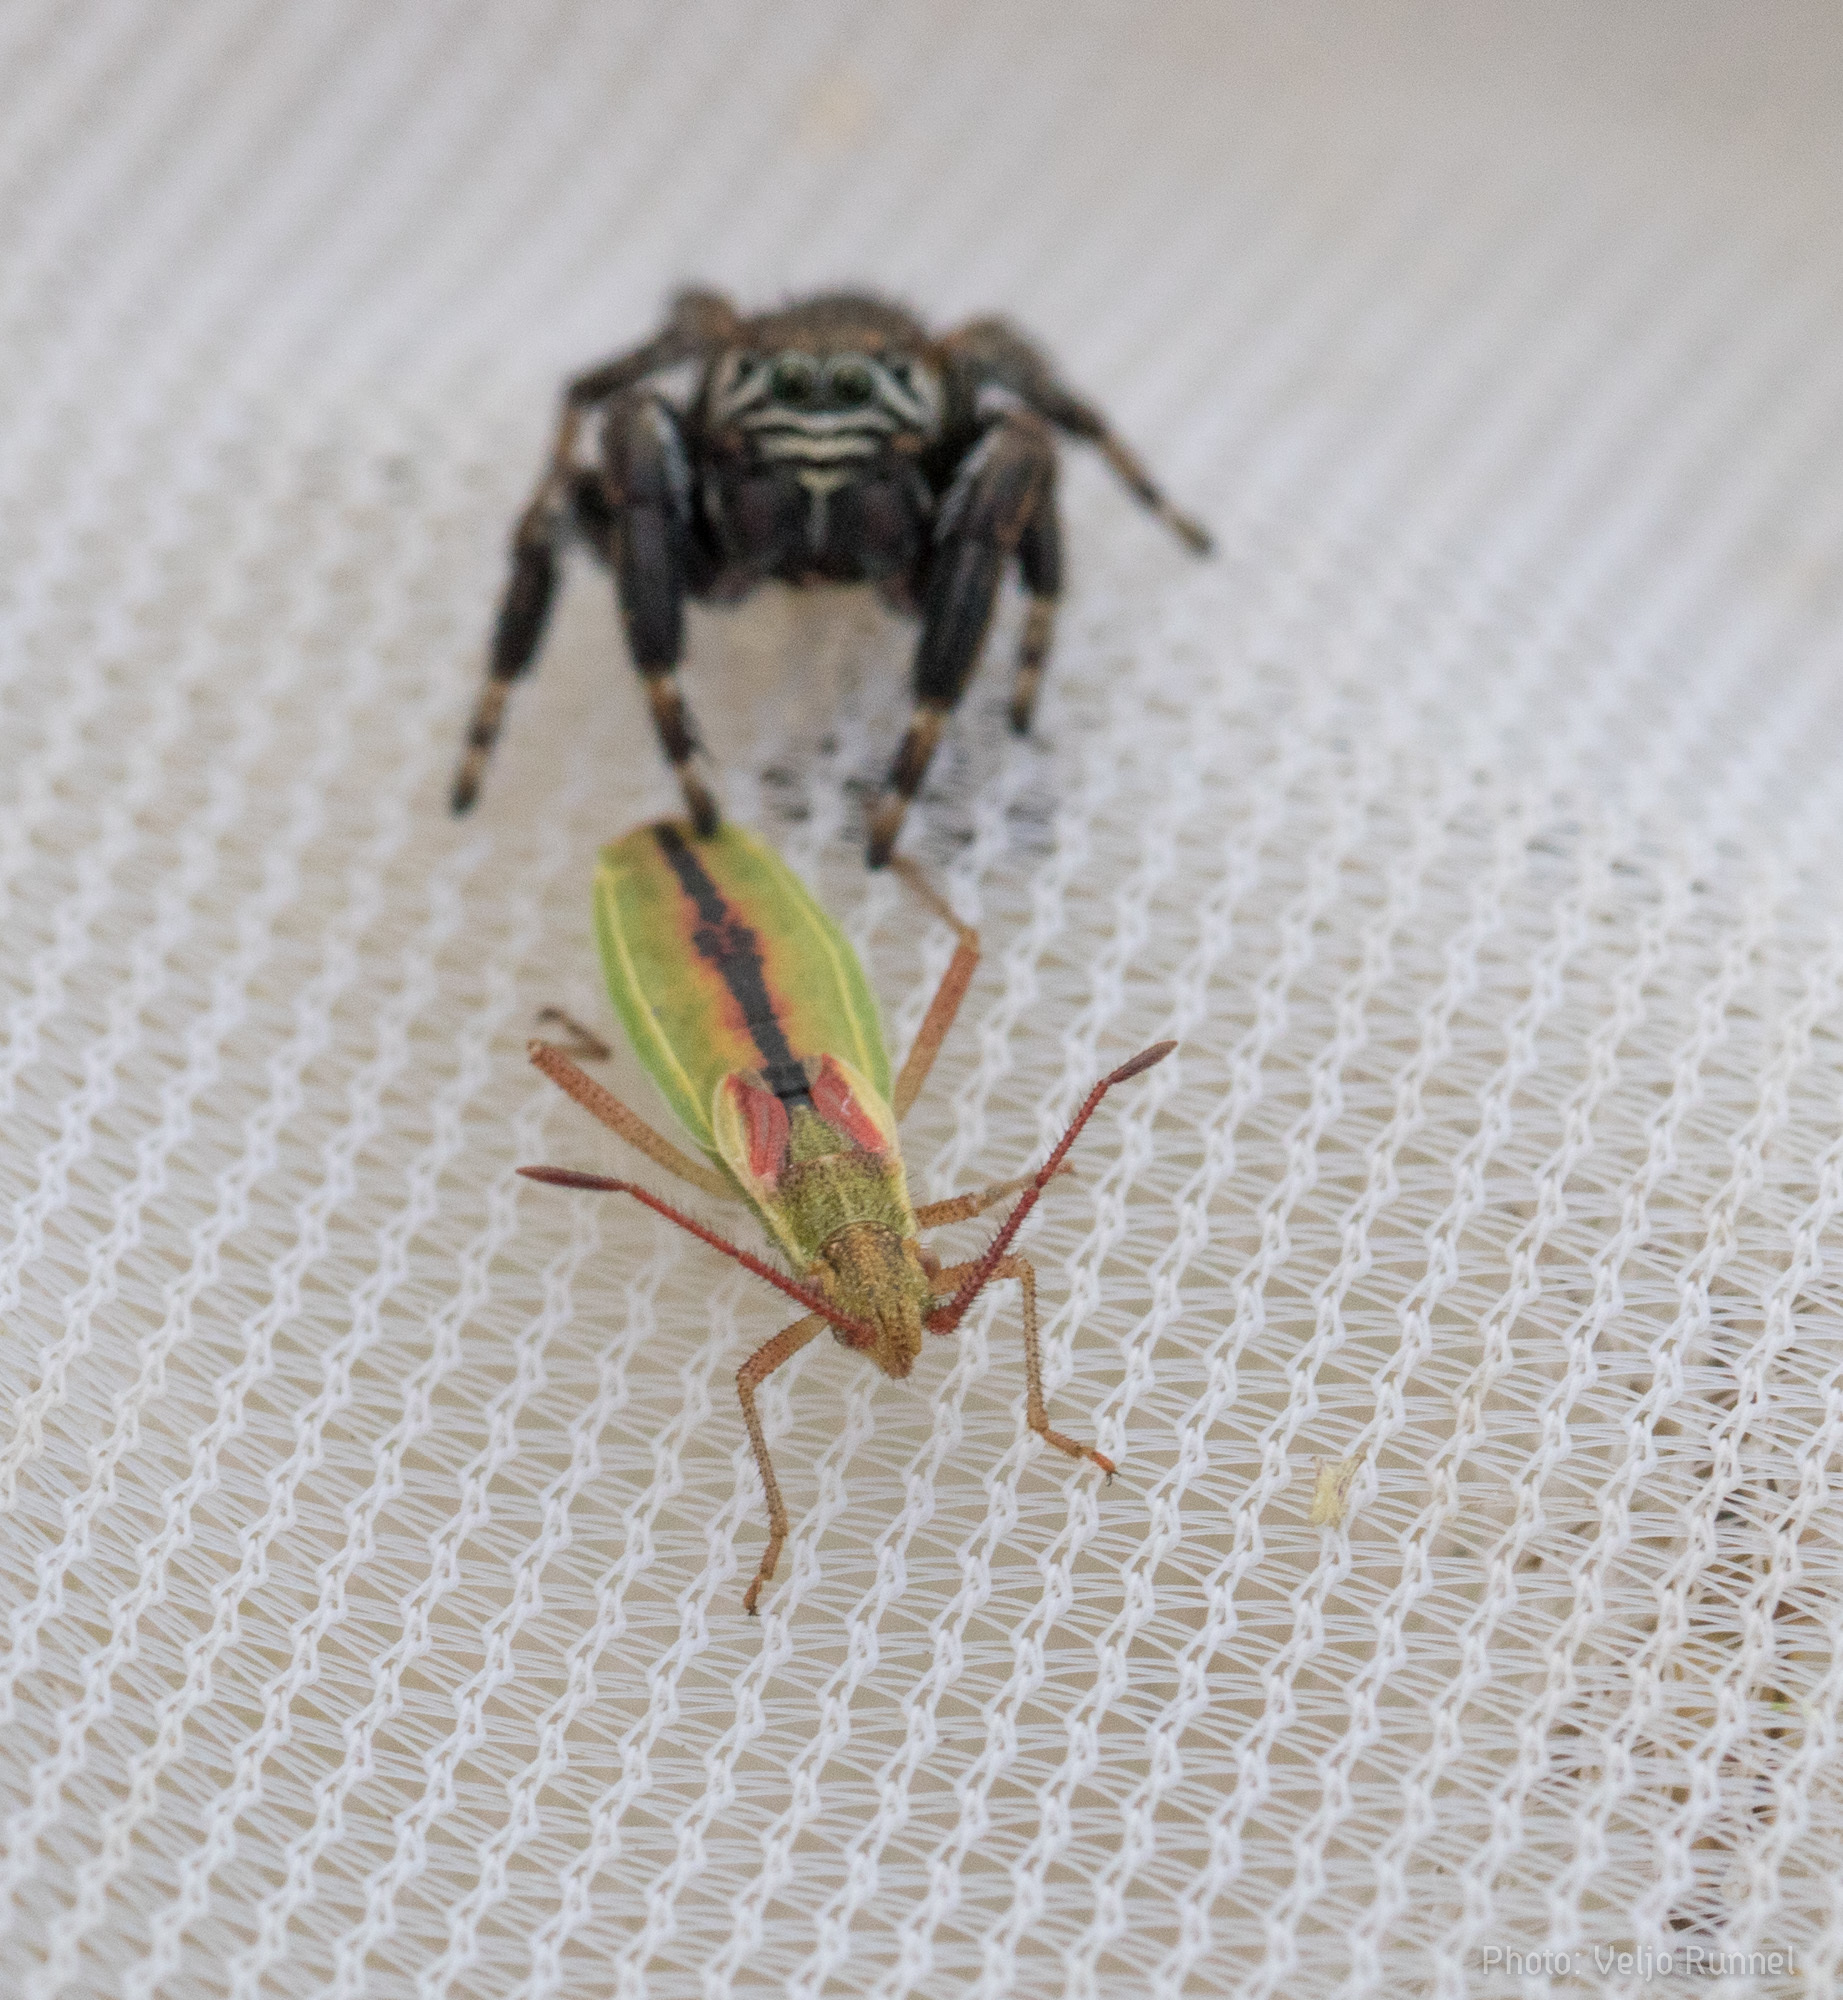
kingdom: Animalia
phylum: Arthropoda
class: Insecta
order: Hemiptera
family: Rhopalidae
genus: Myrmus
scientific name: Myrmus miriformis
